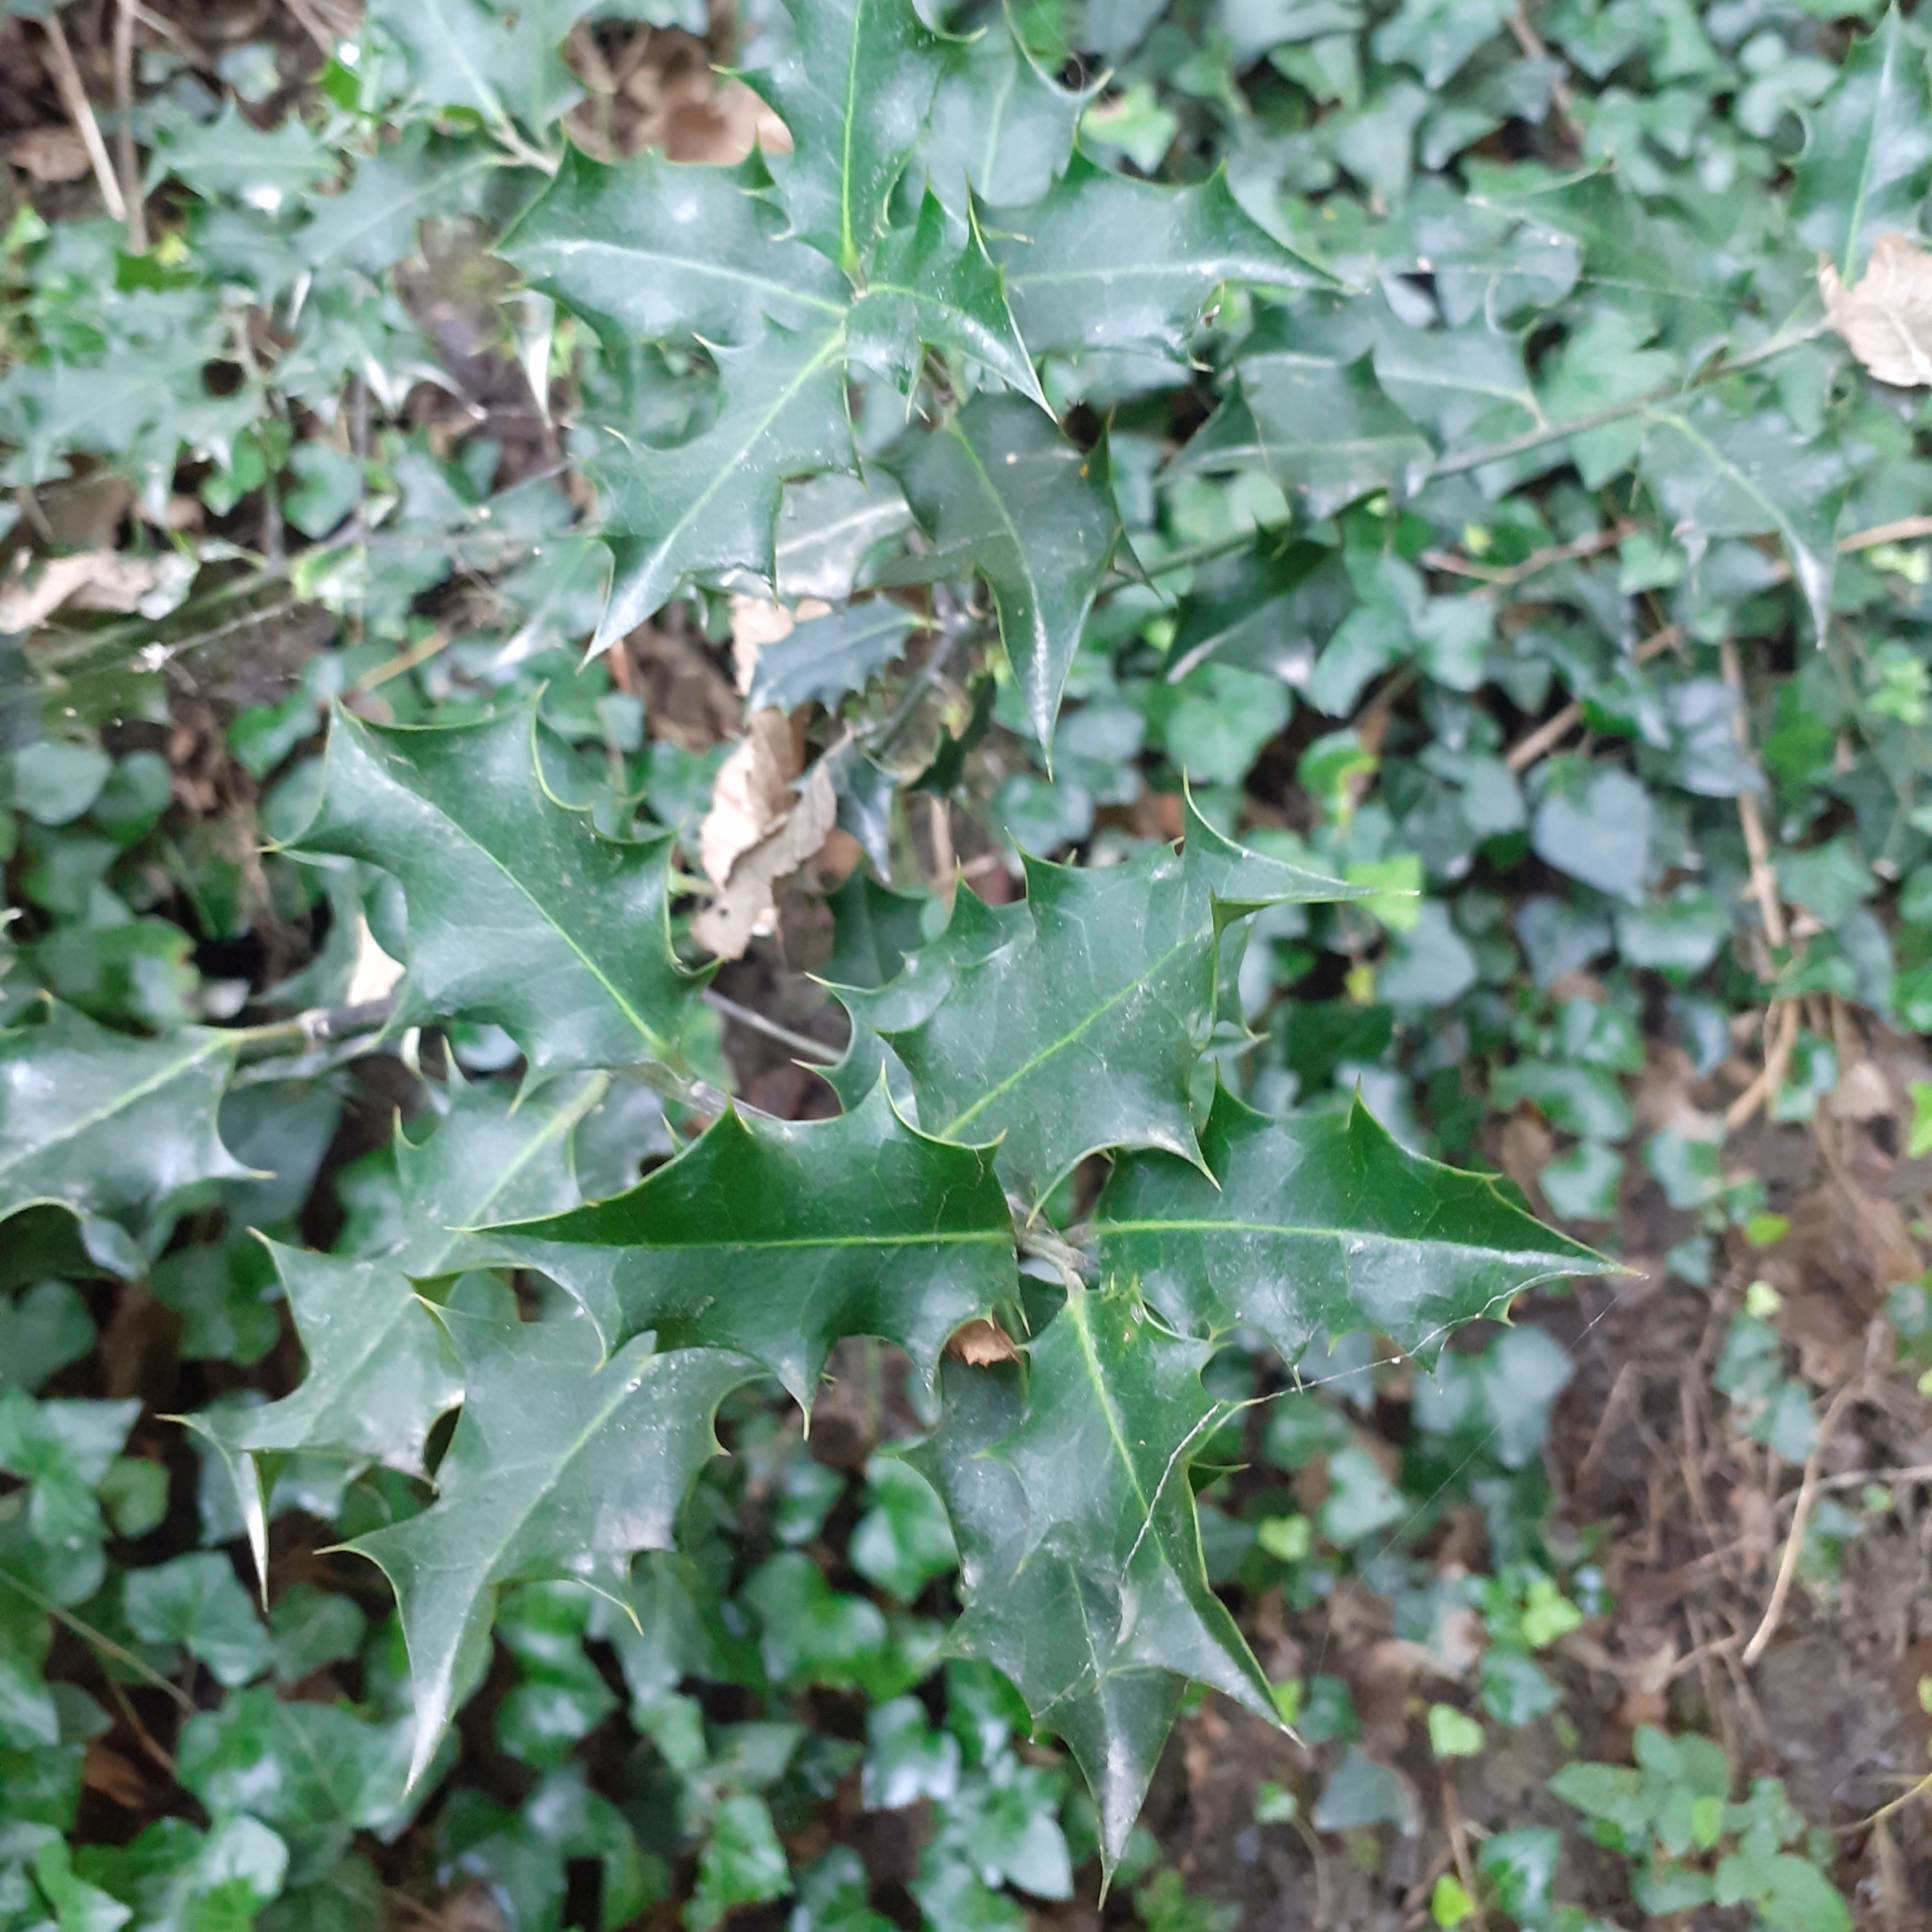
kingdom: Plantae
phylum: Tracheophyta
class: Magnoliopsida
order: Aquifoliales
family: Aquifoliaceae
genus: Ilex
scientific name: Ilex aquifolium
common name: English holly
